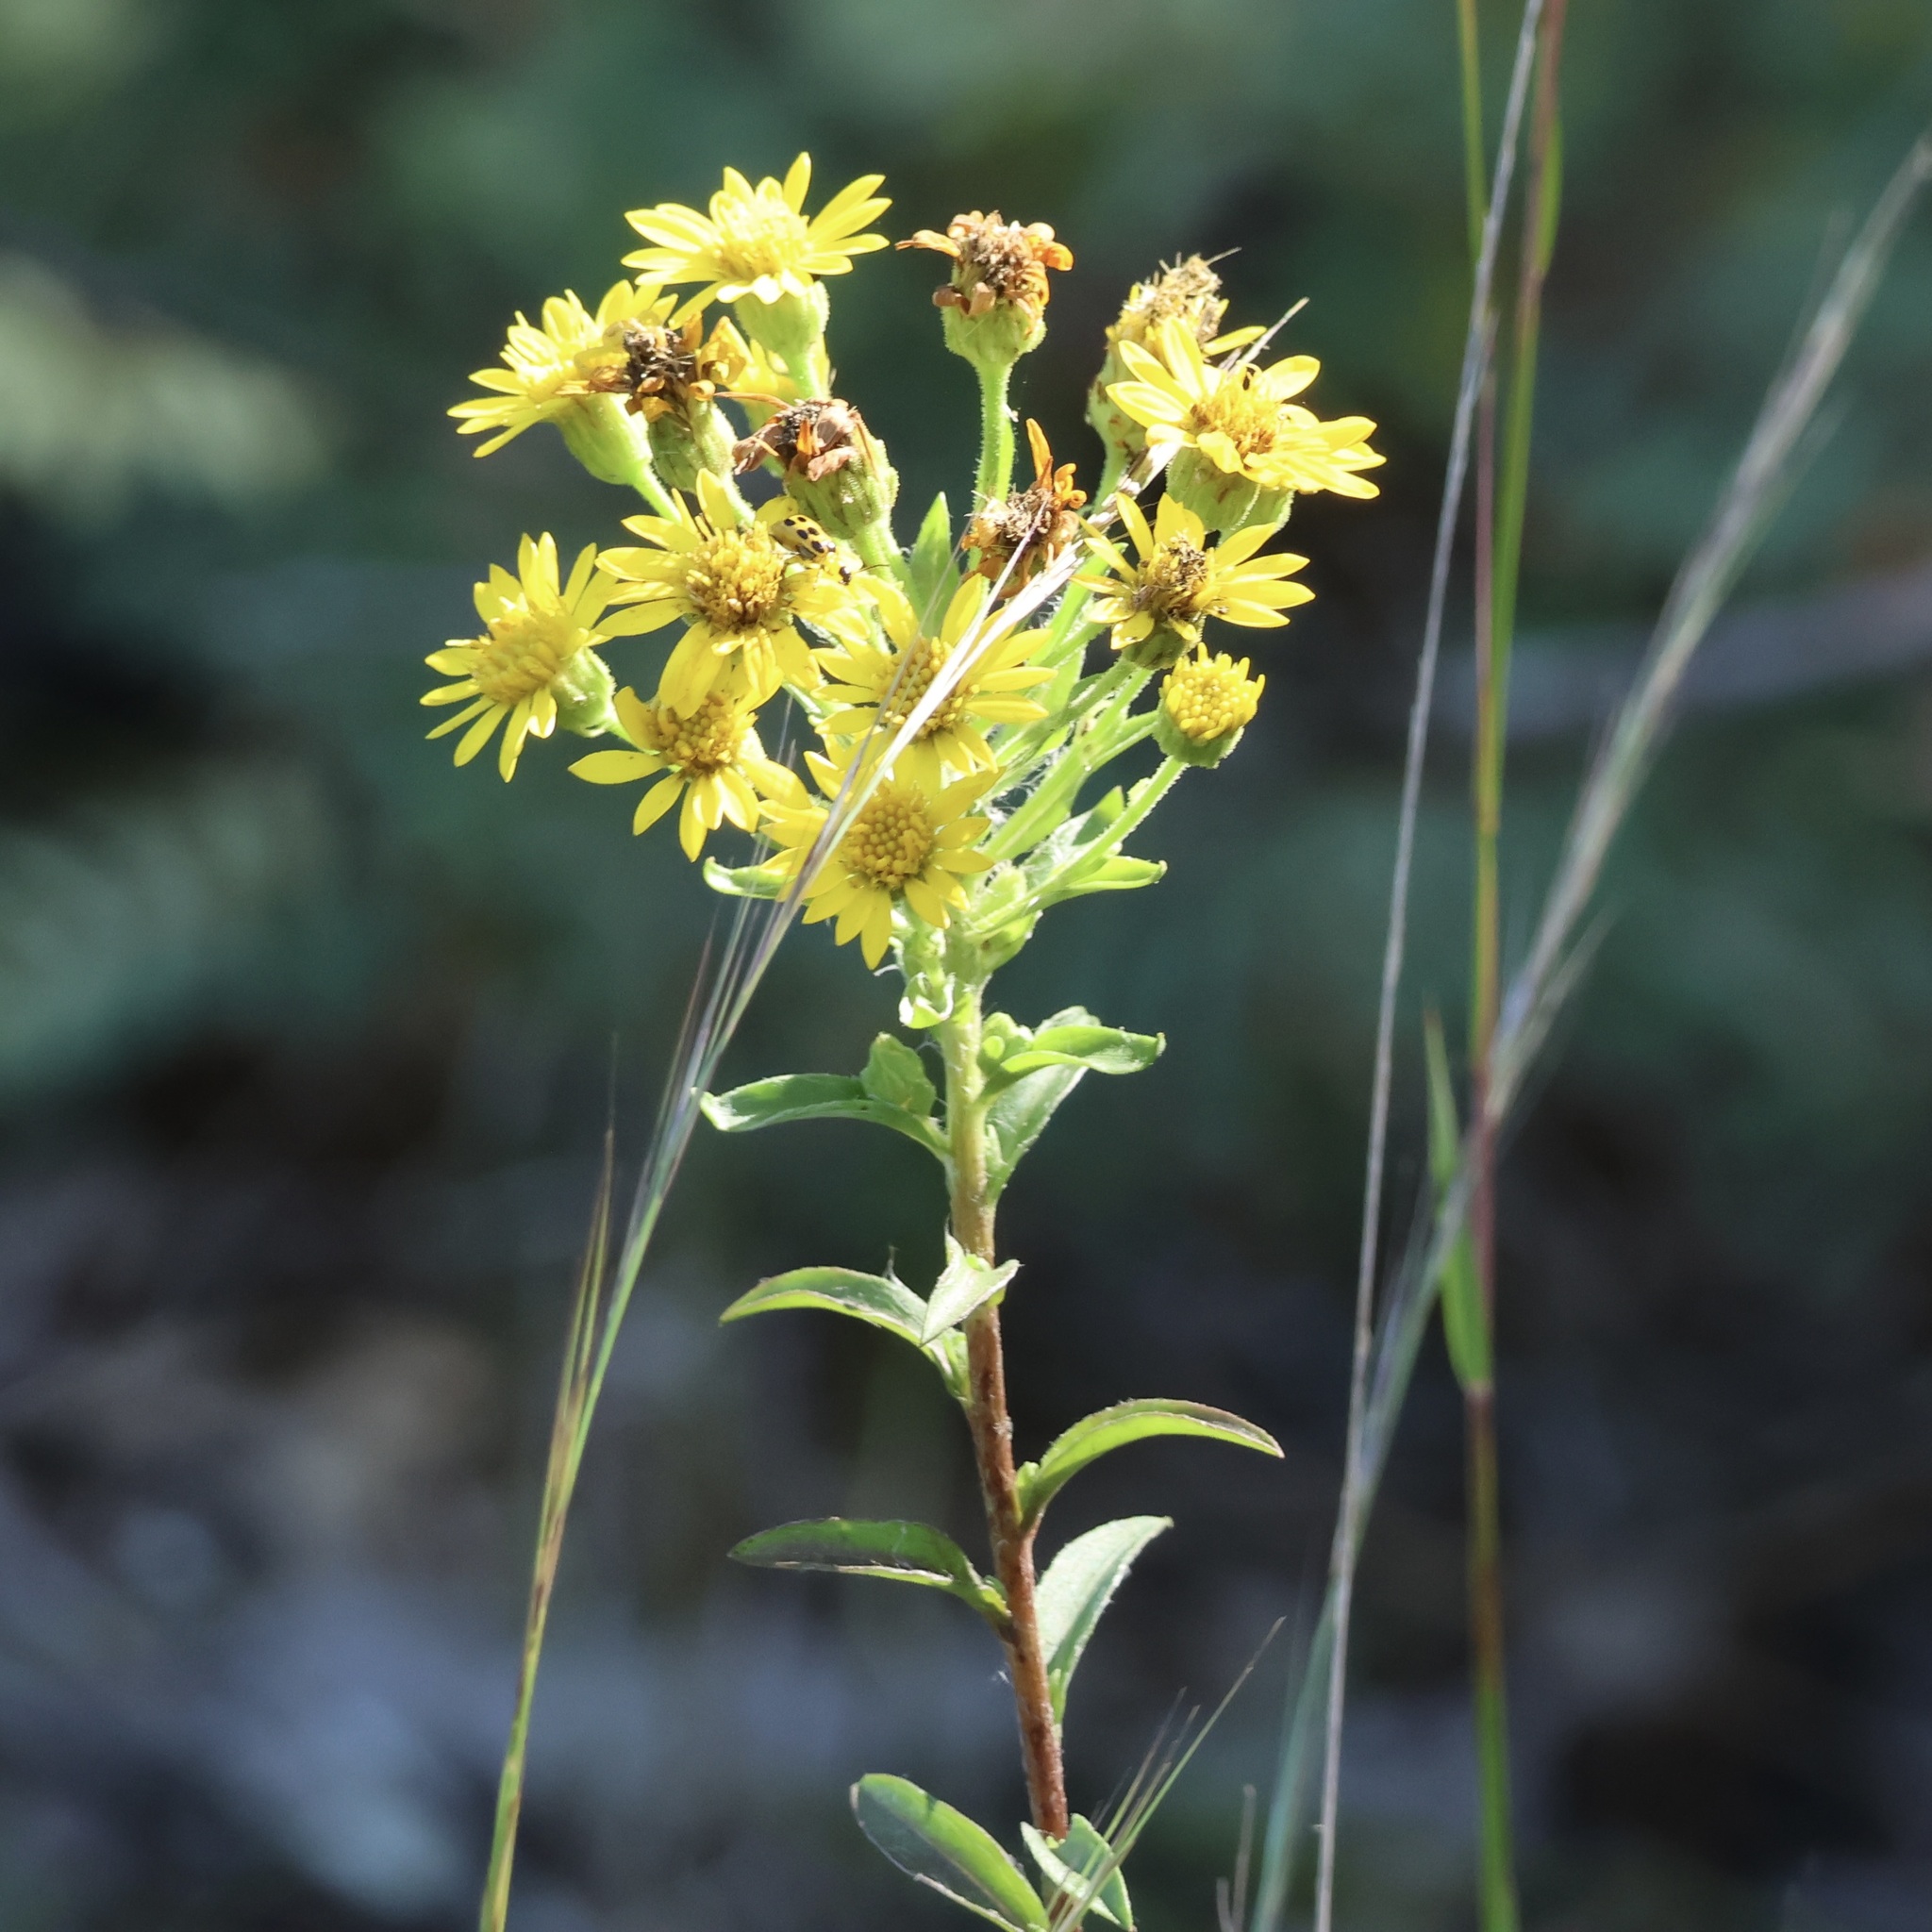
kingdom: Plantae
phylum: Tracheophyta
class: Magnoliopsida
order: Asterales
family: Asteraceae
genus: Chrysopsis
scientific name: Chrysopsis mariana
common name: Maryland golden-aster
